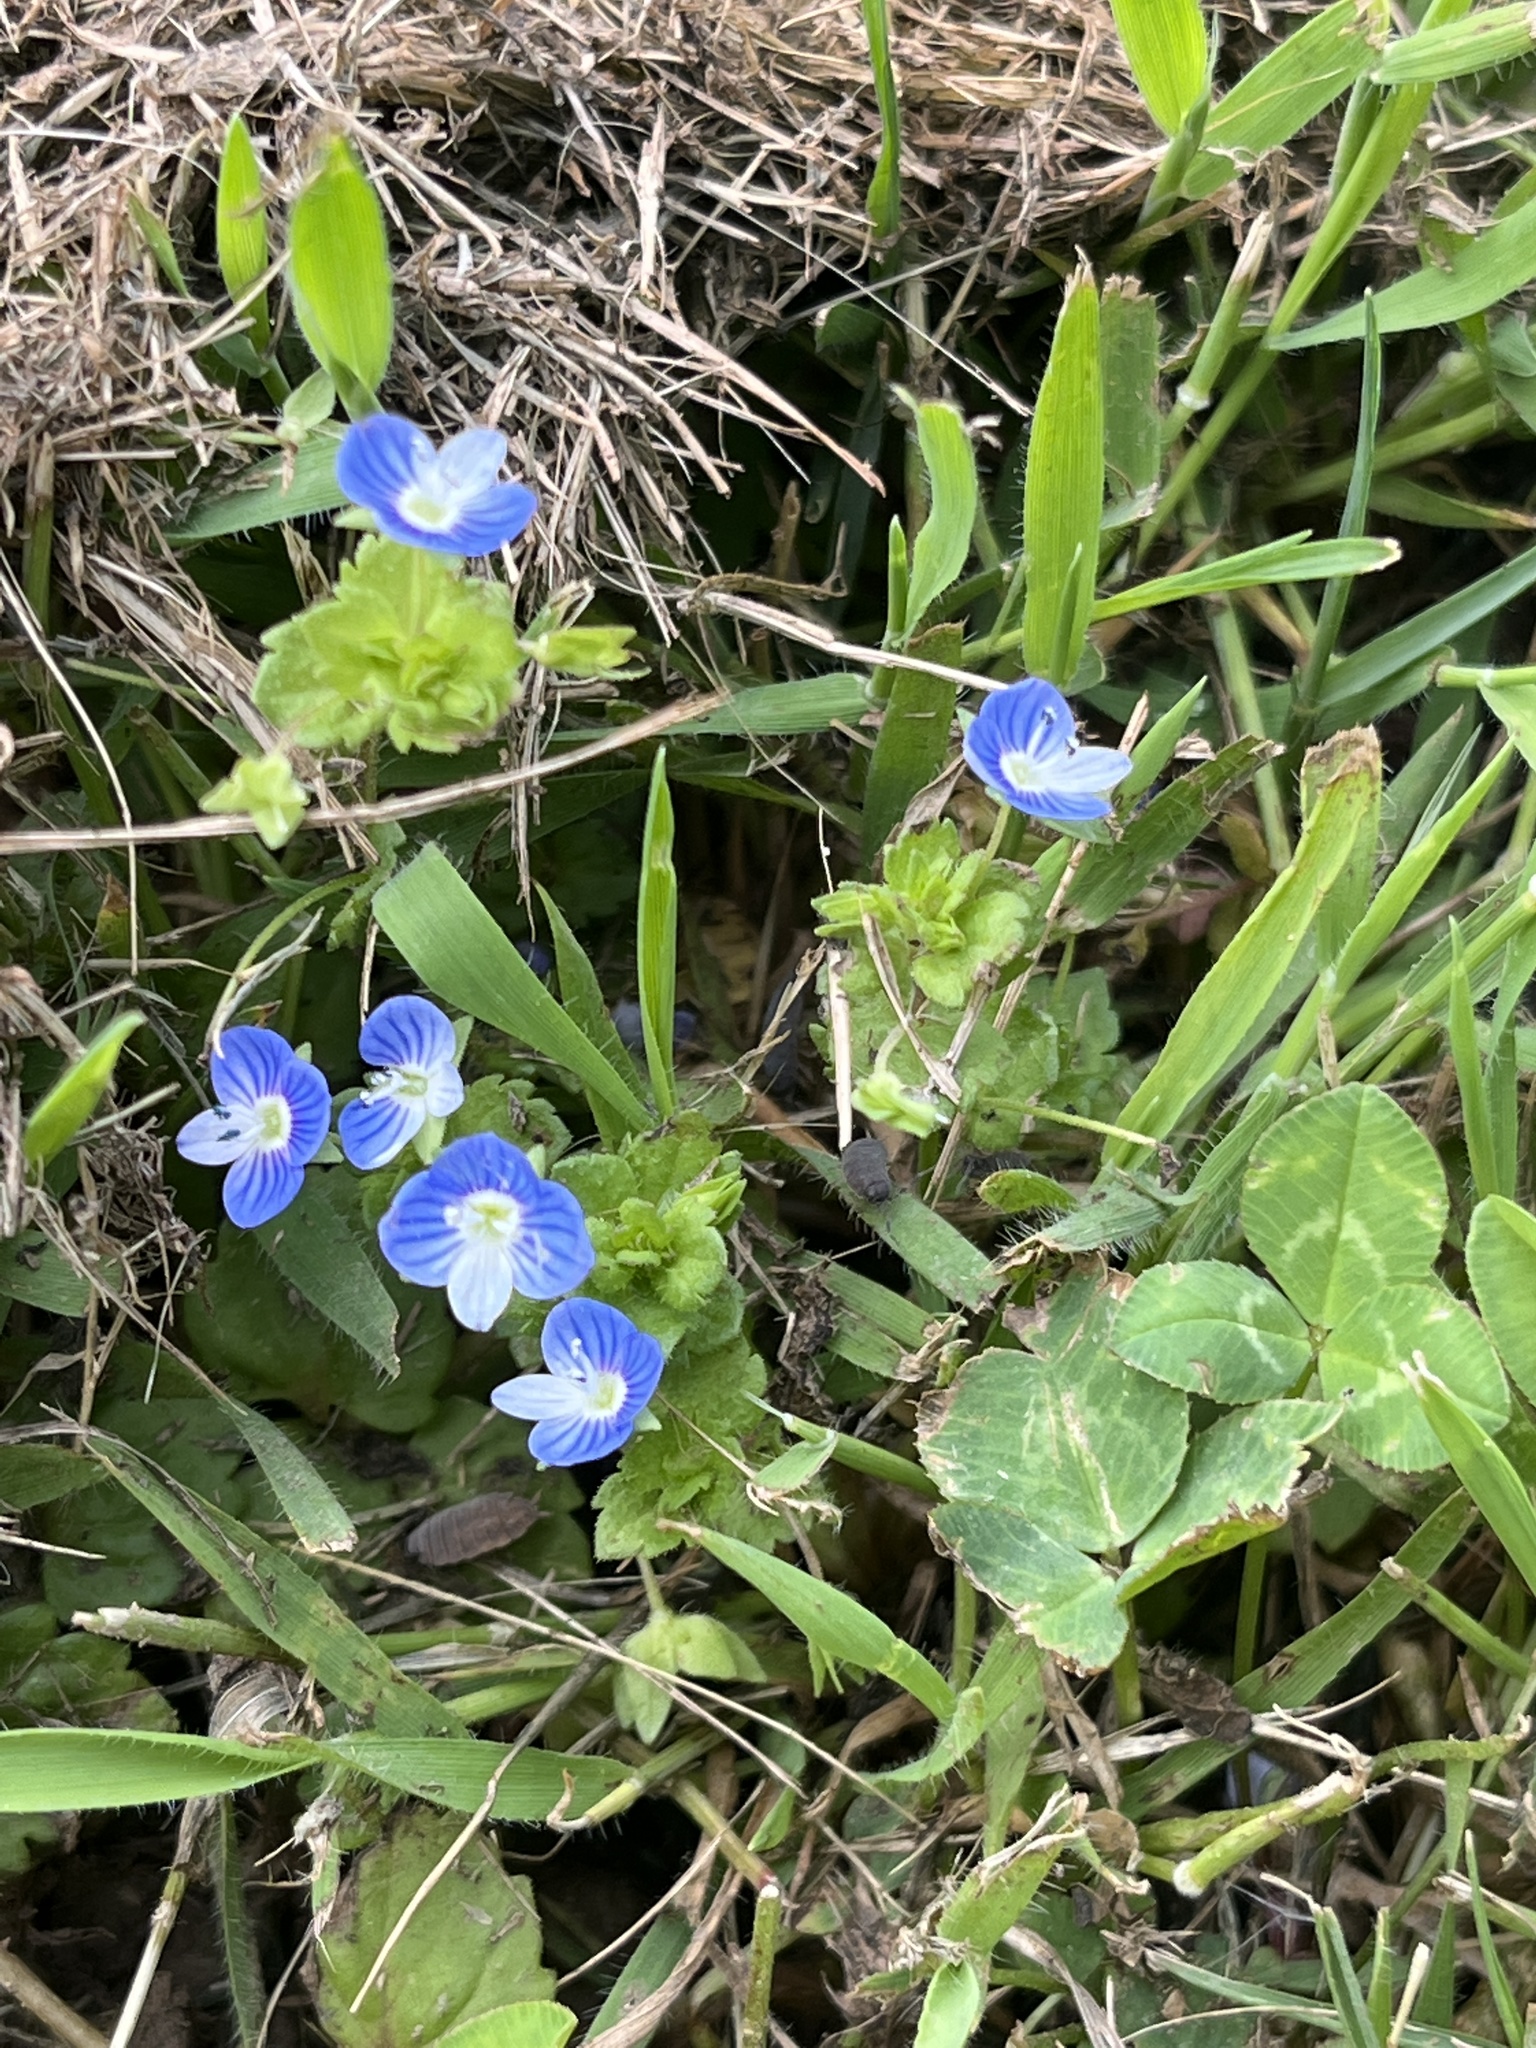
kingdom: Plantae
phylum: Tracheophyta
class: Magnoliopsida
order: Lamiales
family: Plantaginaceae
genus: Veronica
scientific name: Veronica persica
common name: Common field-speedwell
